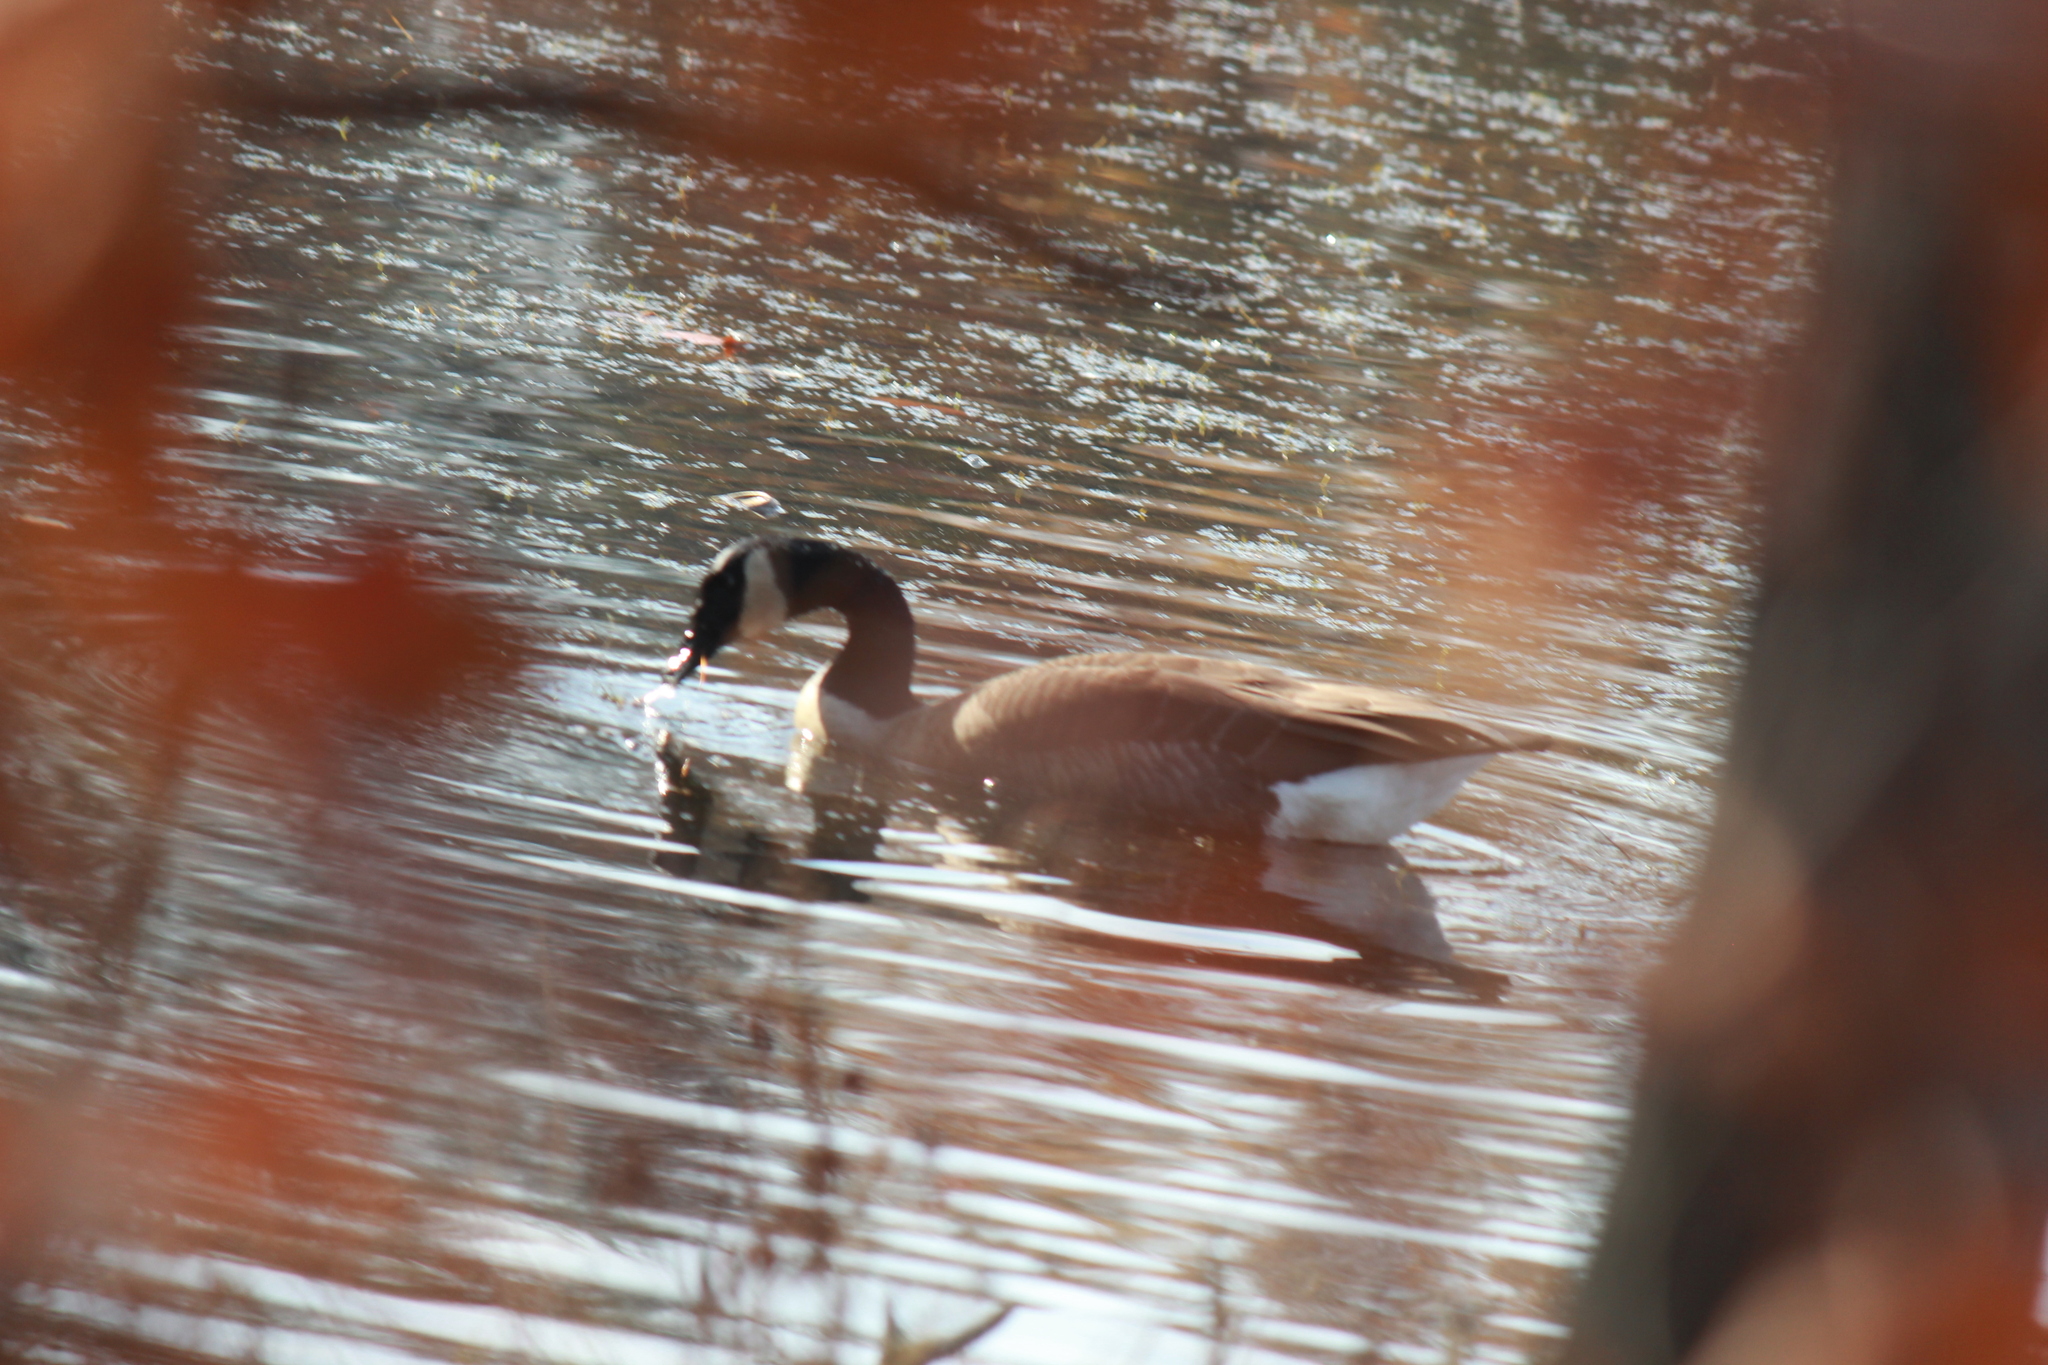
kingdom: Animalia
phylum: Chordata
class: Aves
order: Anseriformes
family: Anatidae
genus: Branta
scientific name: Branta canadensis
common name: Canada goose
